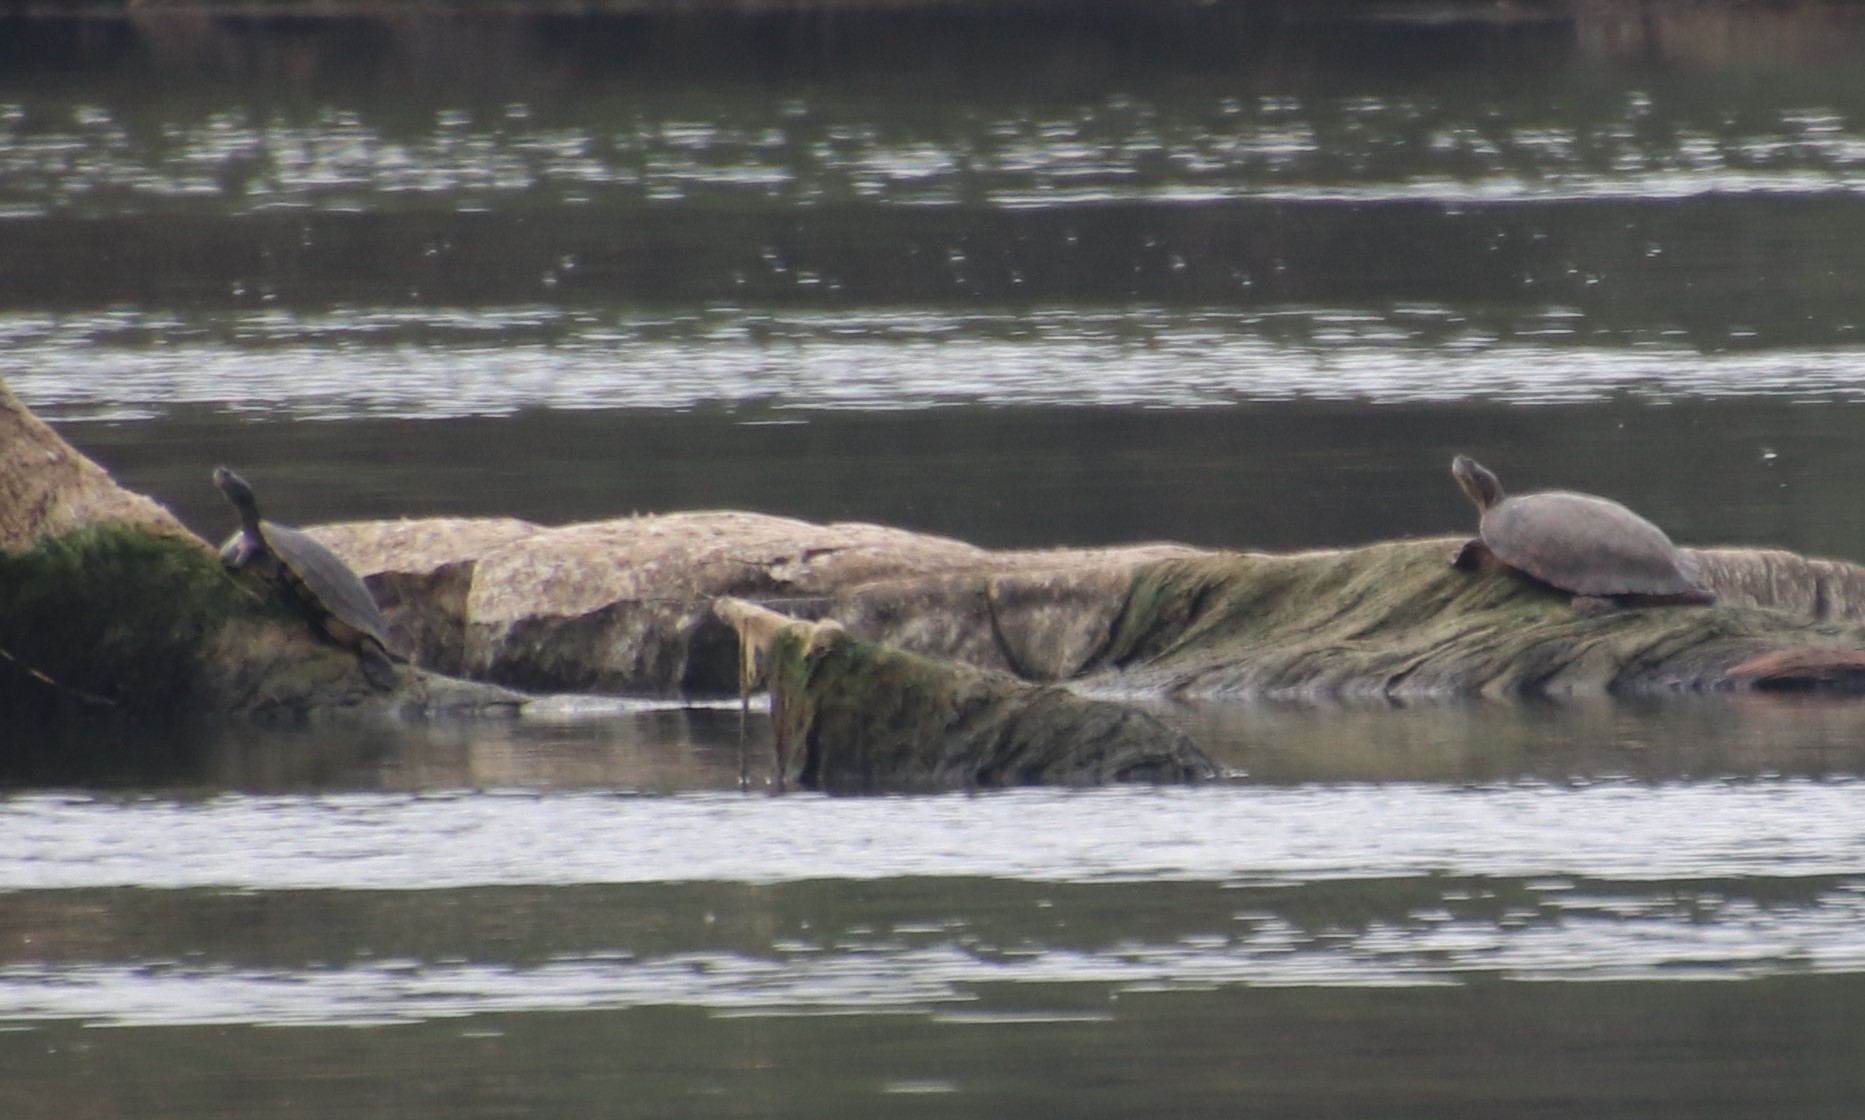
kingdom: Animalia
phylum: Chordata
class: Testudines
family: Emydidae
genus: Pseudemys
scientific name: Pseudemys gorzugi
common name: Rio grande cooter
